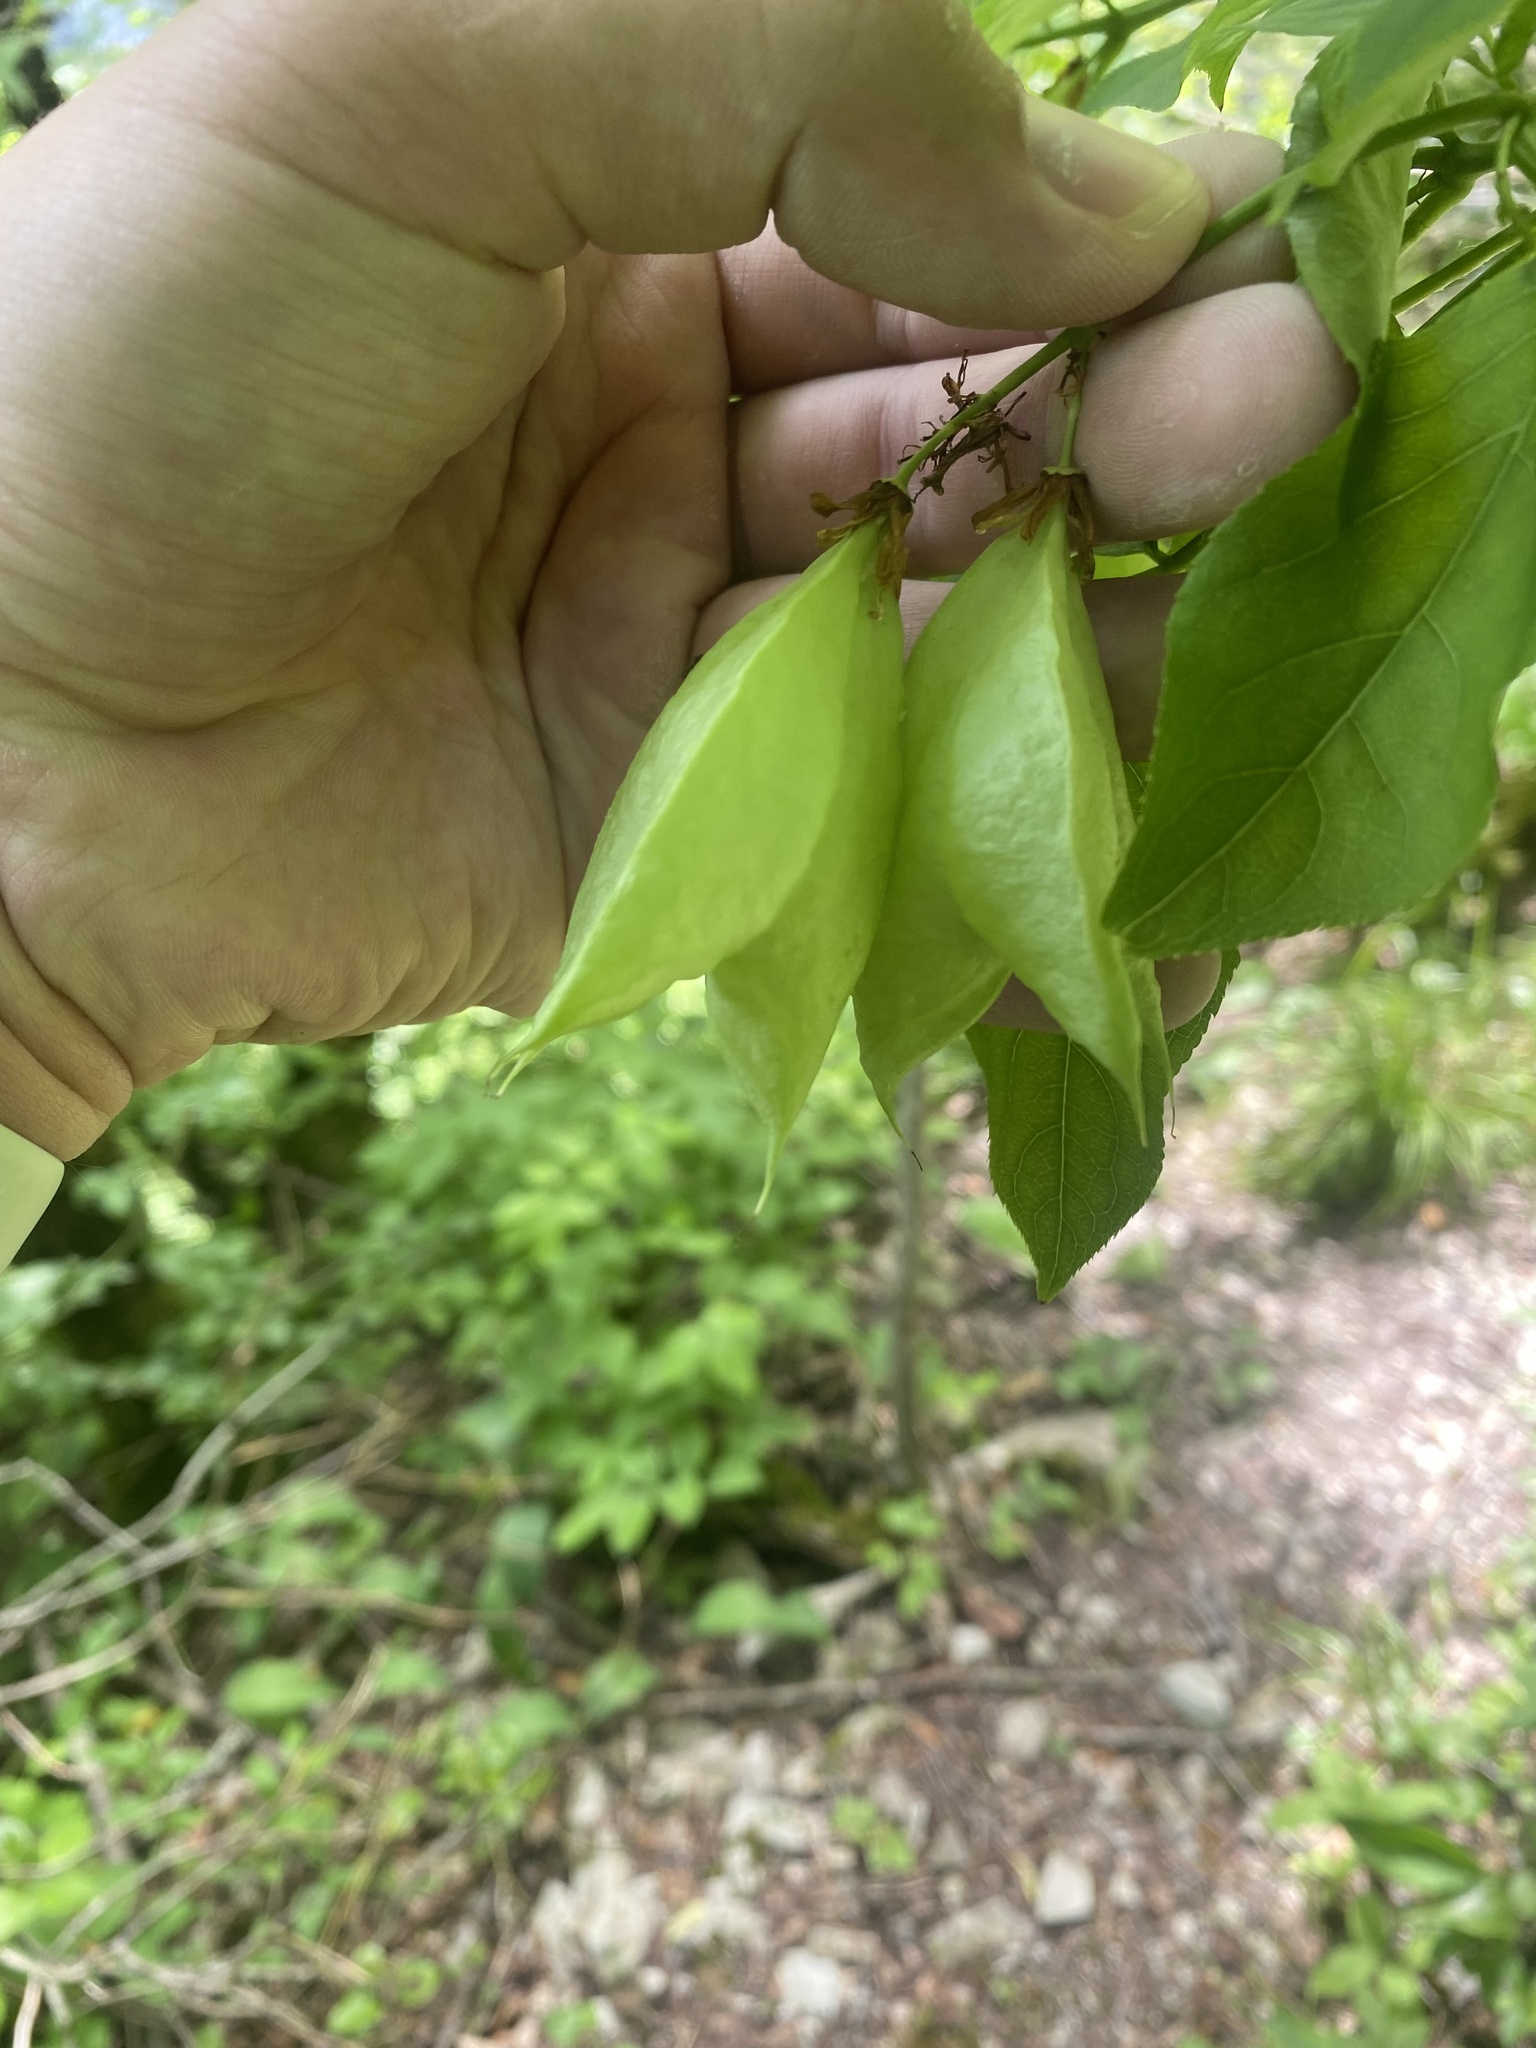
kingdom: Plantae
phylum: Tracheophyta
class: Magnoliopsida
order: Crossosomatales
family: Staphyleaceae
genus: Staphylea
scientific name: Staphylea colchica
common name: Caucasian bladdernut
